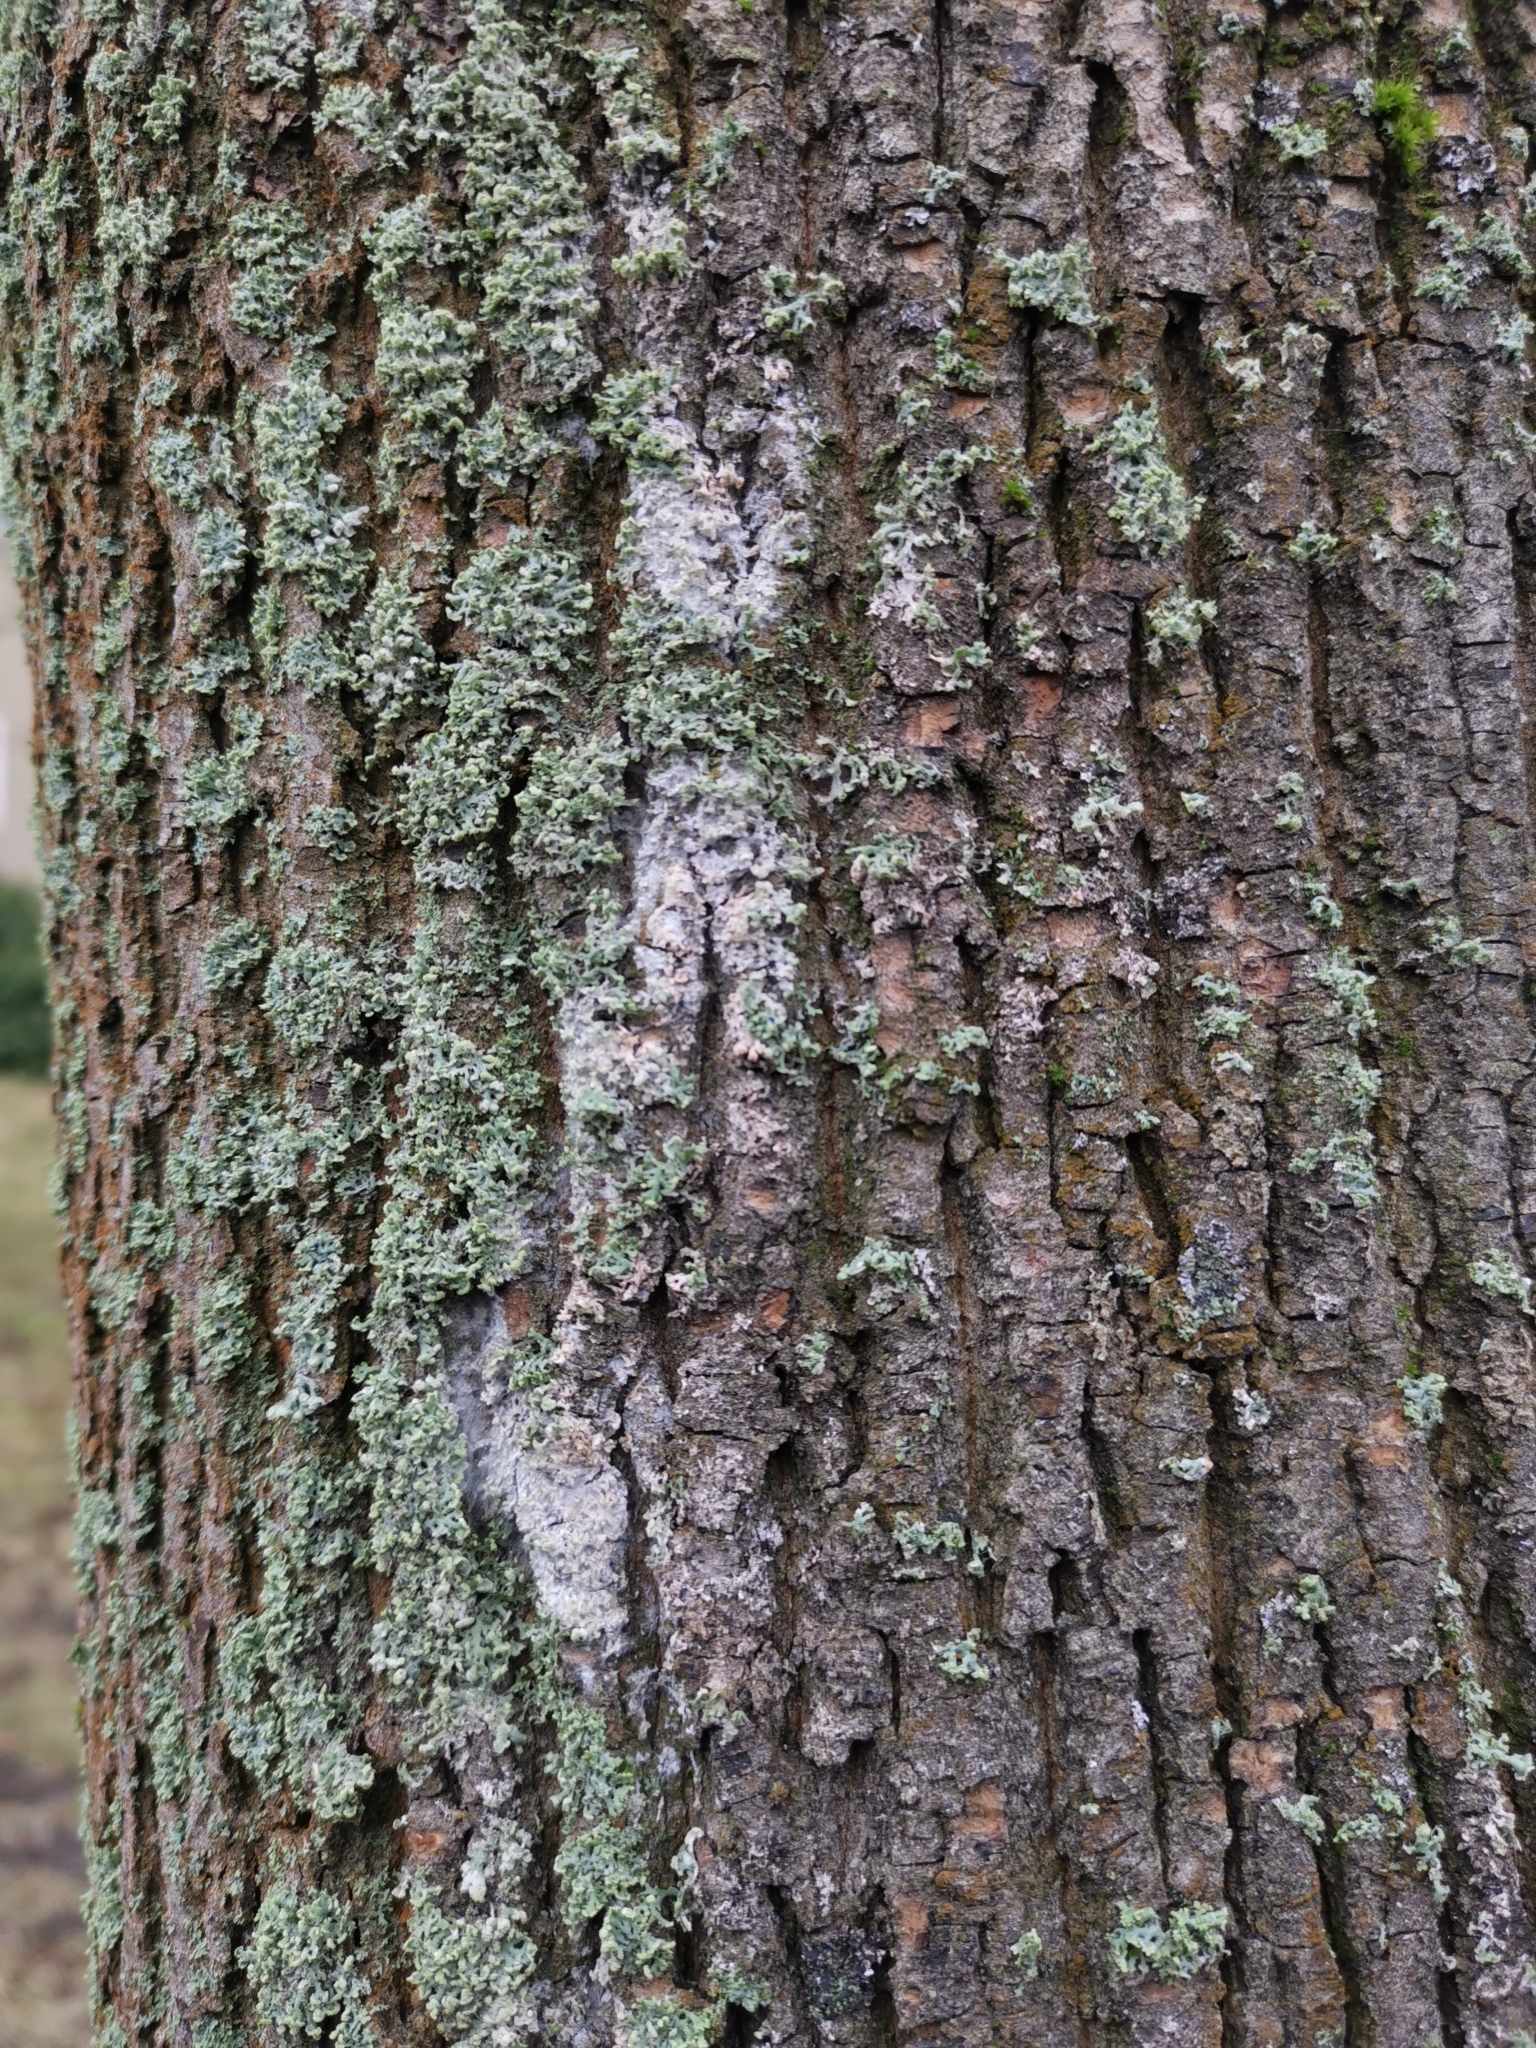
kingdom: Fungi
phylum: Basidiomycota
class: Agaricomycetes
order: Atheliales
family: Atheliaceae
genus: Athelia
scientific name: Athelia arachnoidea
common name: Candelabra duster
